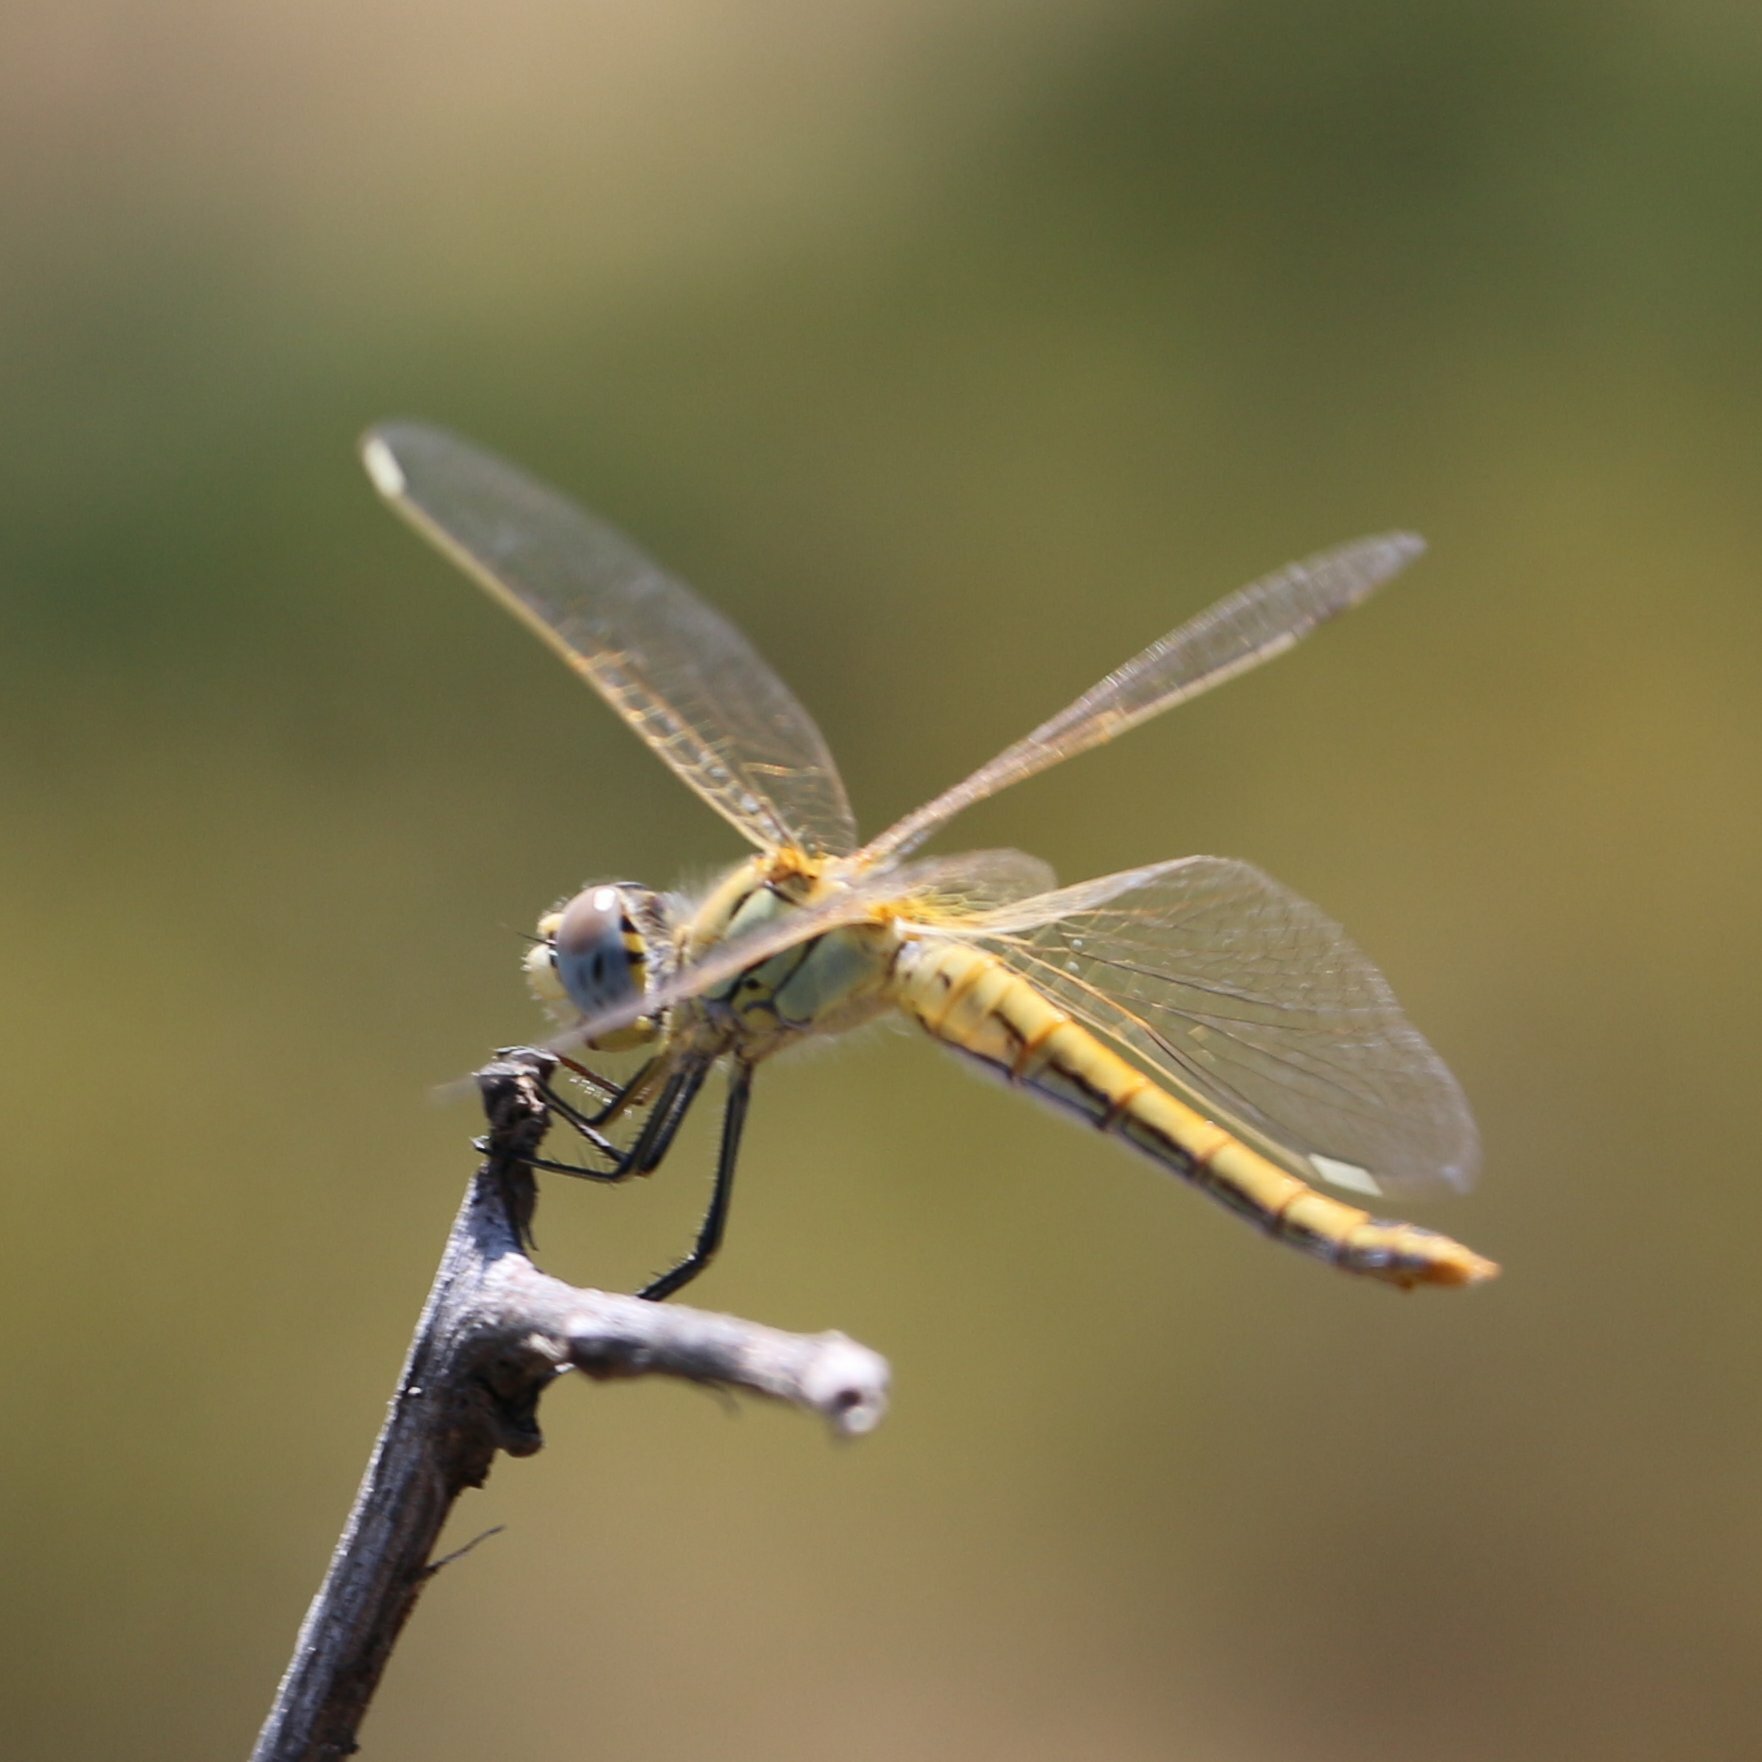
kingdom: Animalia
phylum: Arthropoda
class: Insecta
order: Odonata
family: Libellulidae
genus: Sympetrum
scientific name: Sympetrum fonscolombii
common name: Red-veined darter
